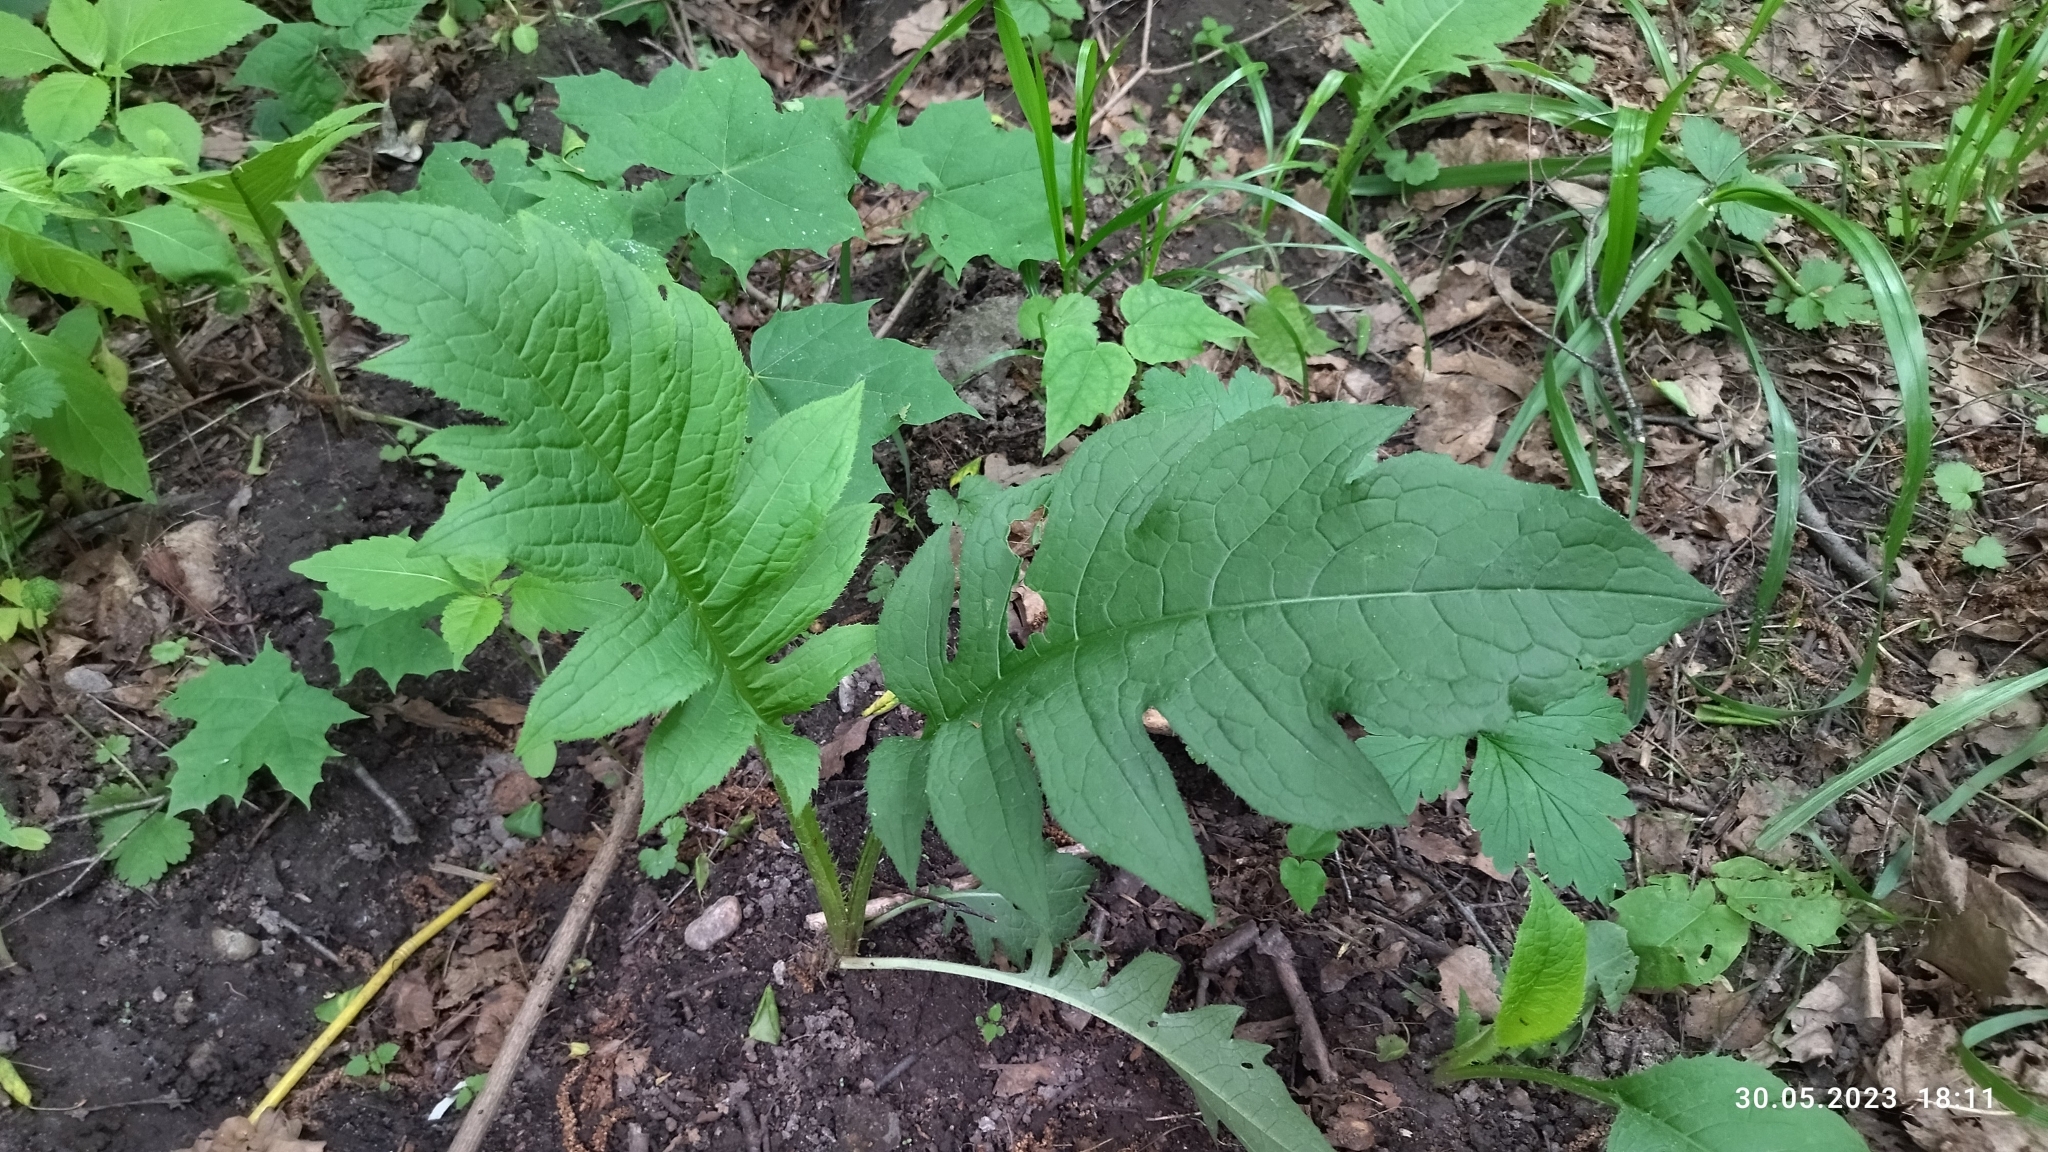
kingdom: Plantae
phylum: Tracheophyta
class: Magnoliopsida
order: Asterales
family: Asteraceae
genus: Cirsium
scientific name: Cirsium oleraceum
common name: Cabbage thistle
